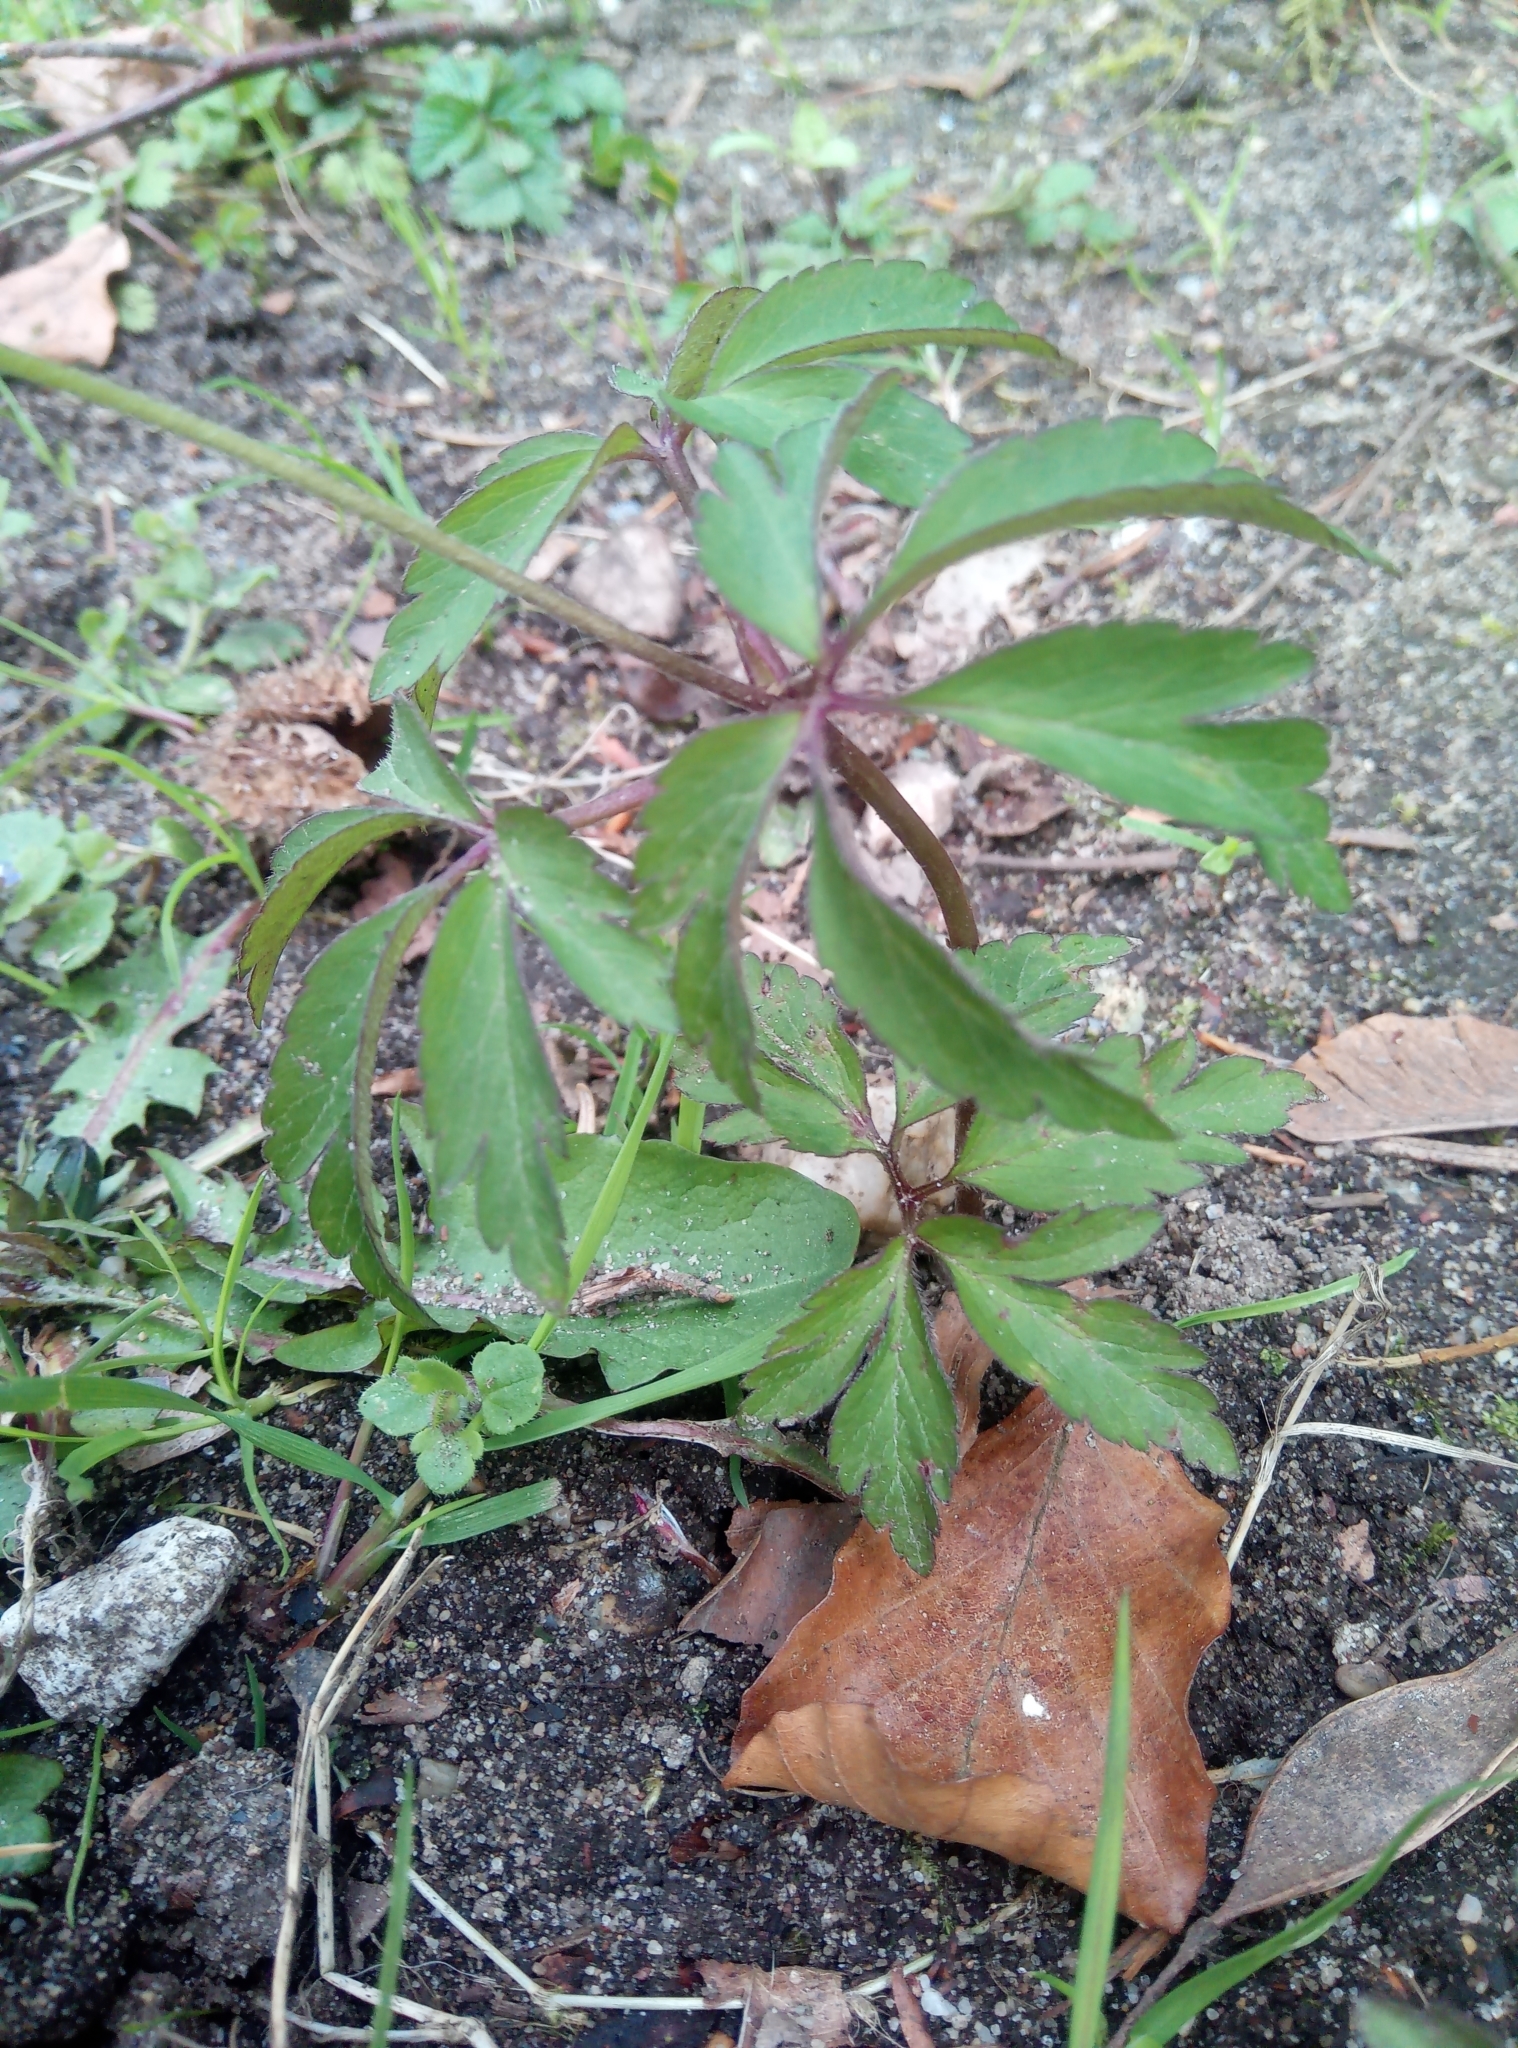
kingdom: Plantae
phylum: Tracheophyta
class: Magnoliopsida
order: Ranunculales
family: Ranunculaceae
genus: Anemone
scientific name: Anemone nemorosa
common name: Wood anemone
